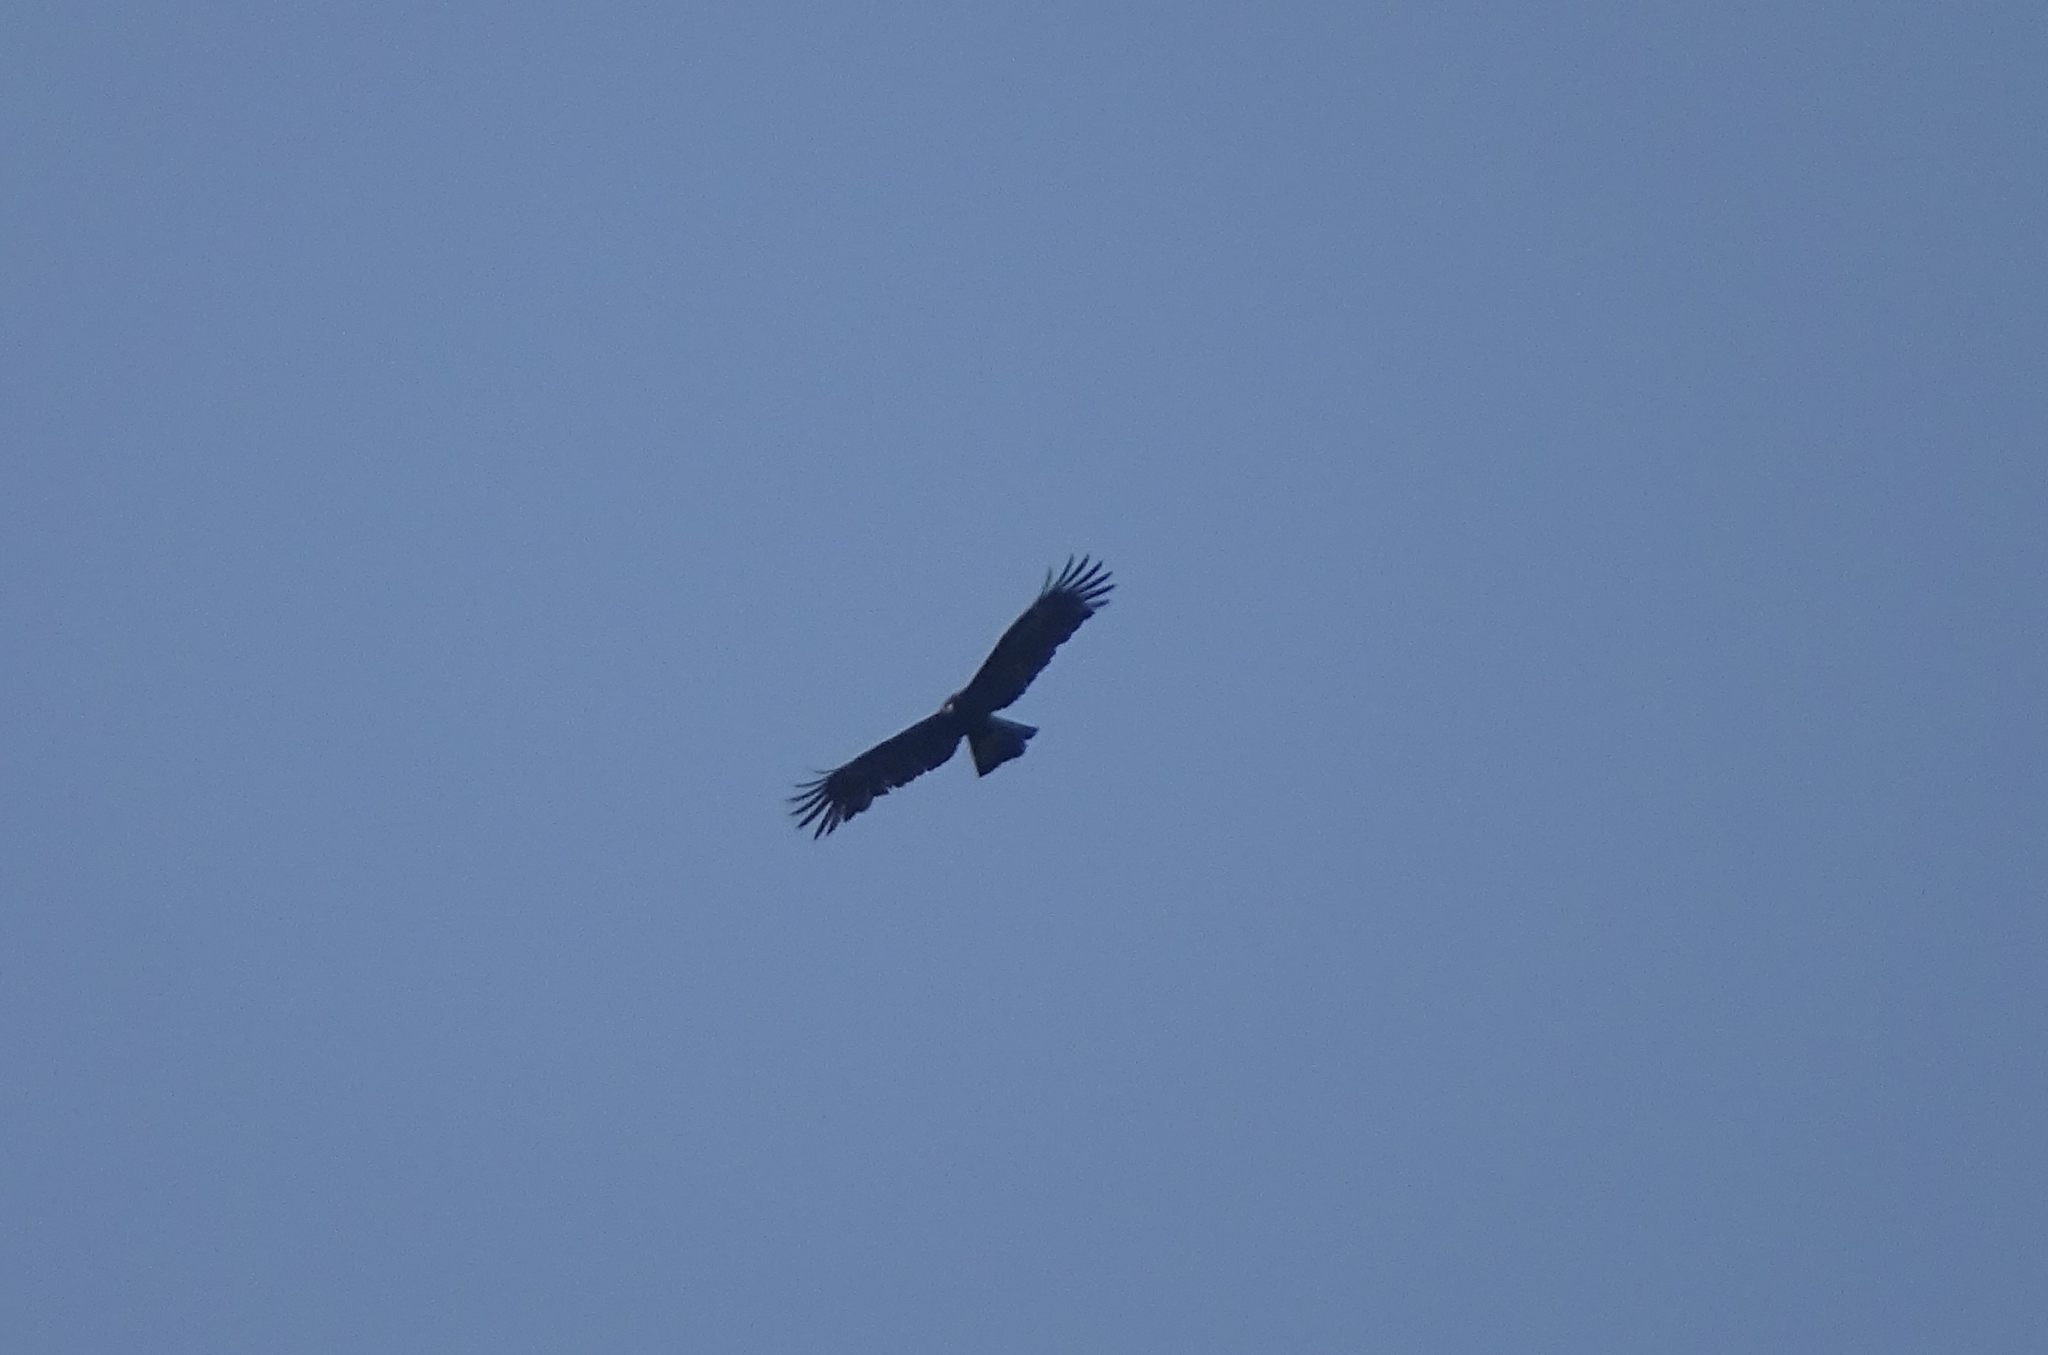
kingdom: Animalia
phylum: Chordata
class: Aves
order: Accipitriformes
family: Accipitridae
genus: Ictinaetus
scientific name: Ictinaetus malayensis
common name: Black eagle
